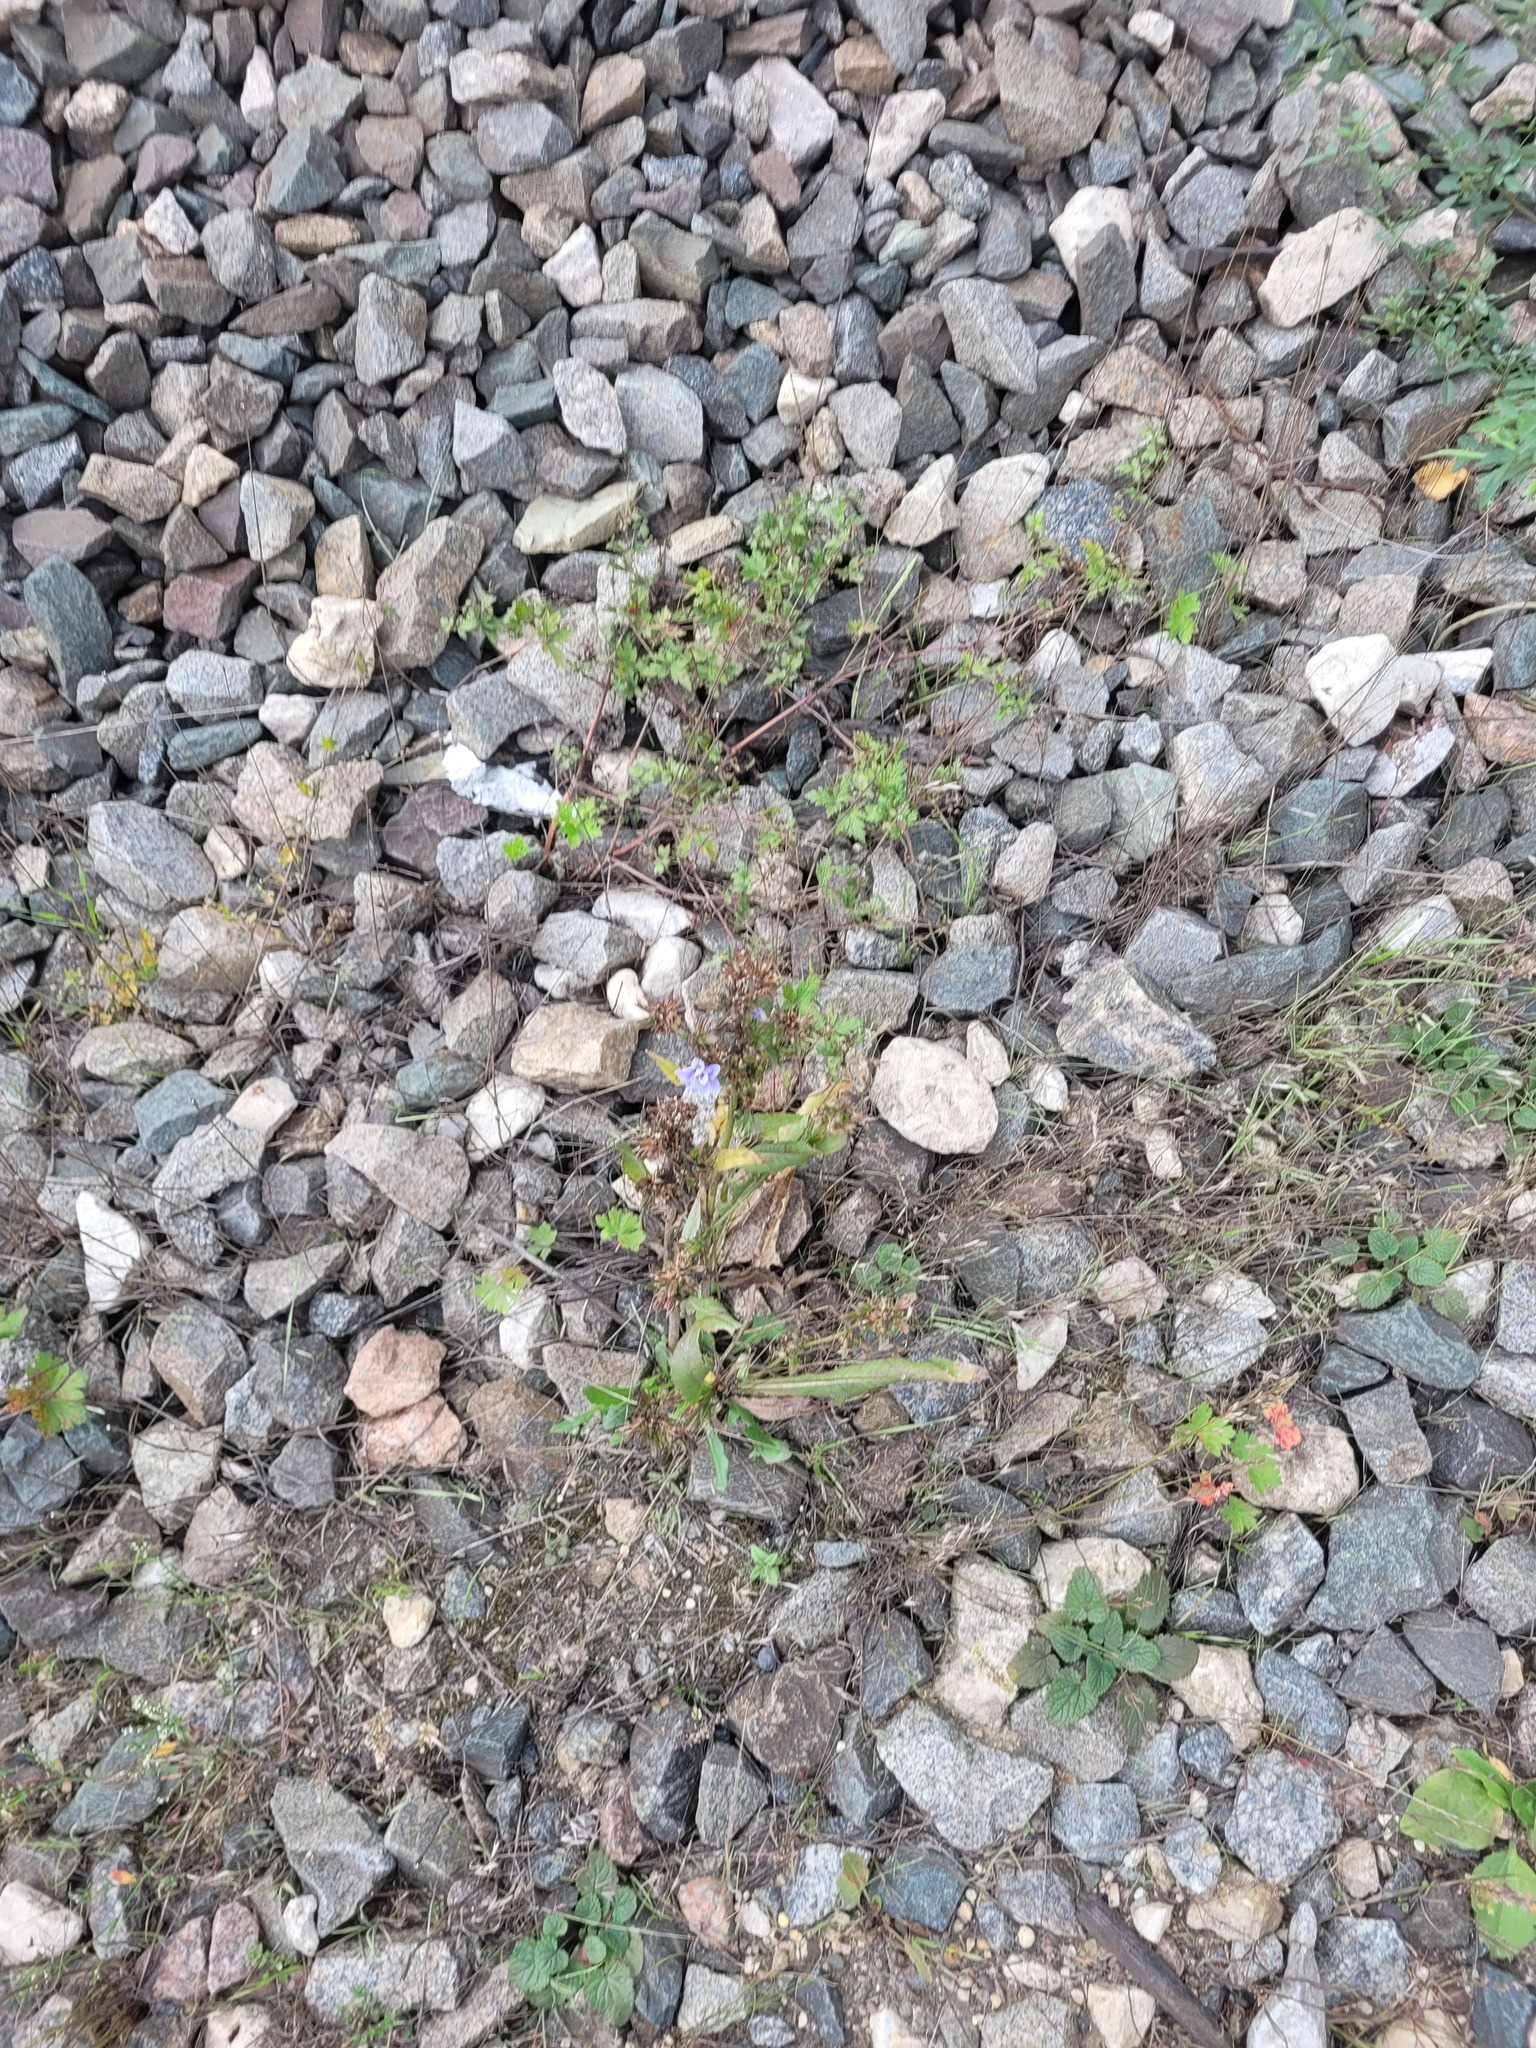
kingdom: Plantae
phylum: Tracheophyta
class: Magnoliopsida
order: Asterales
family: Asteraceae
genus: Cichorium
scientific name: Cichorium intybus
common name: Chicory
